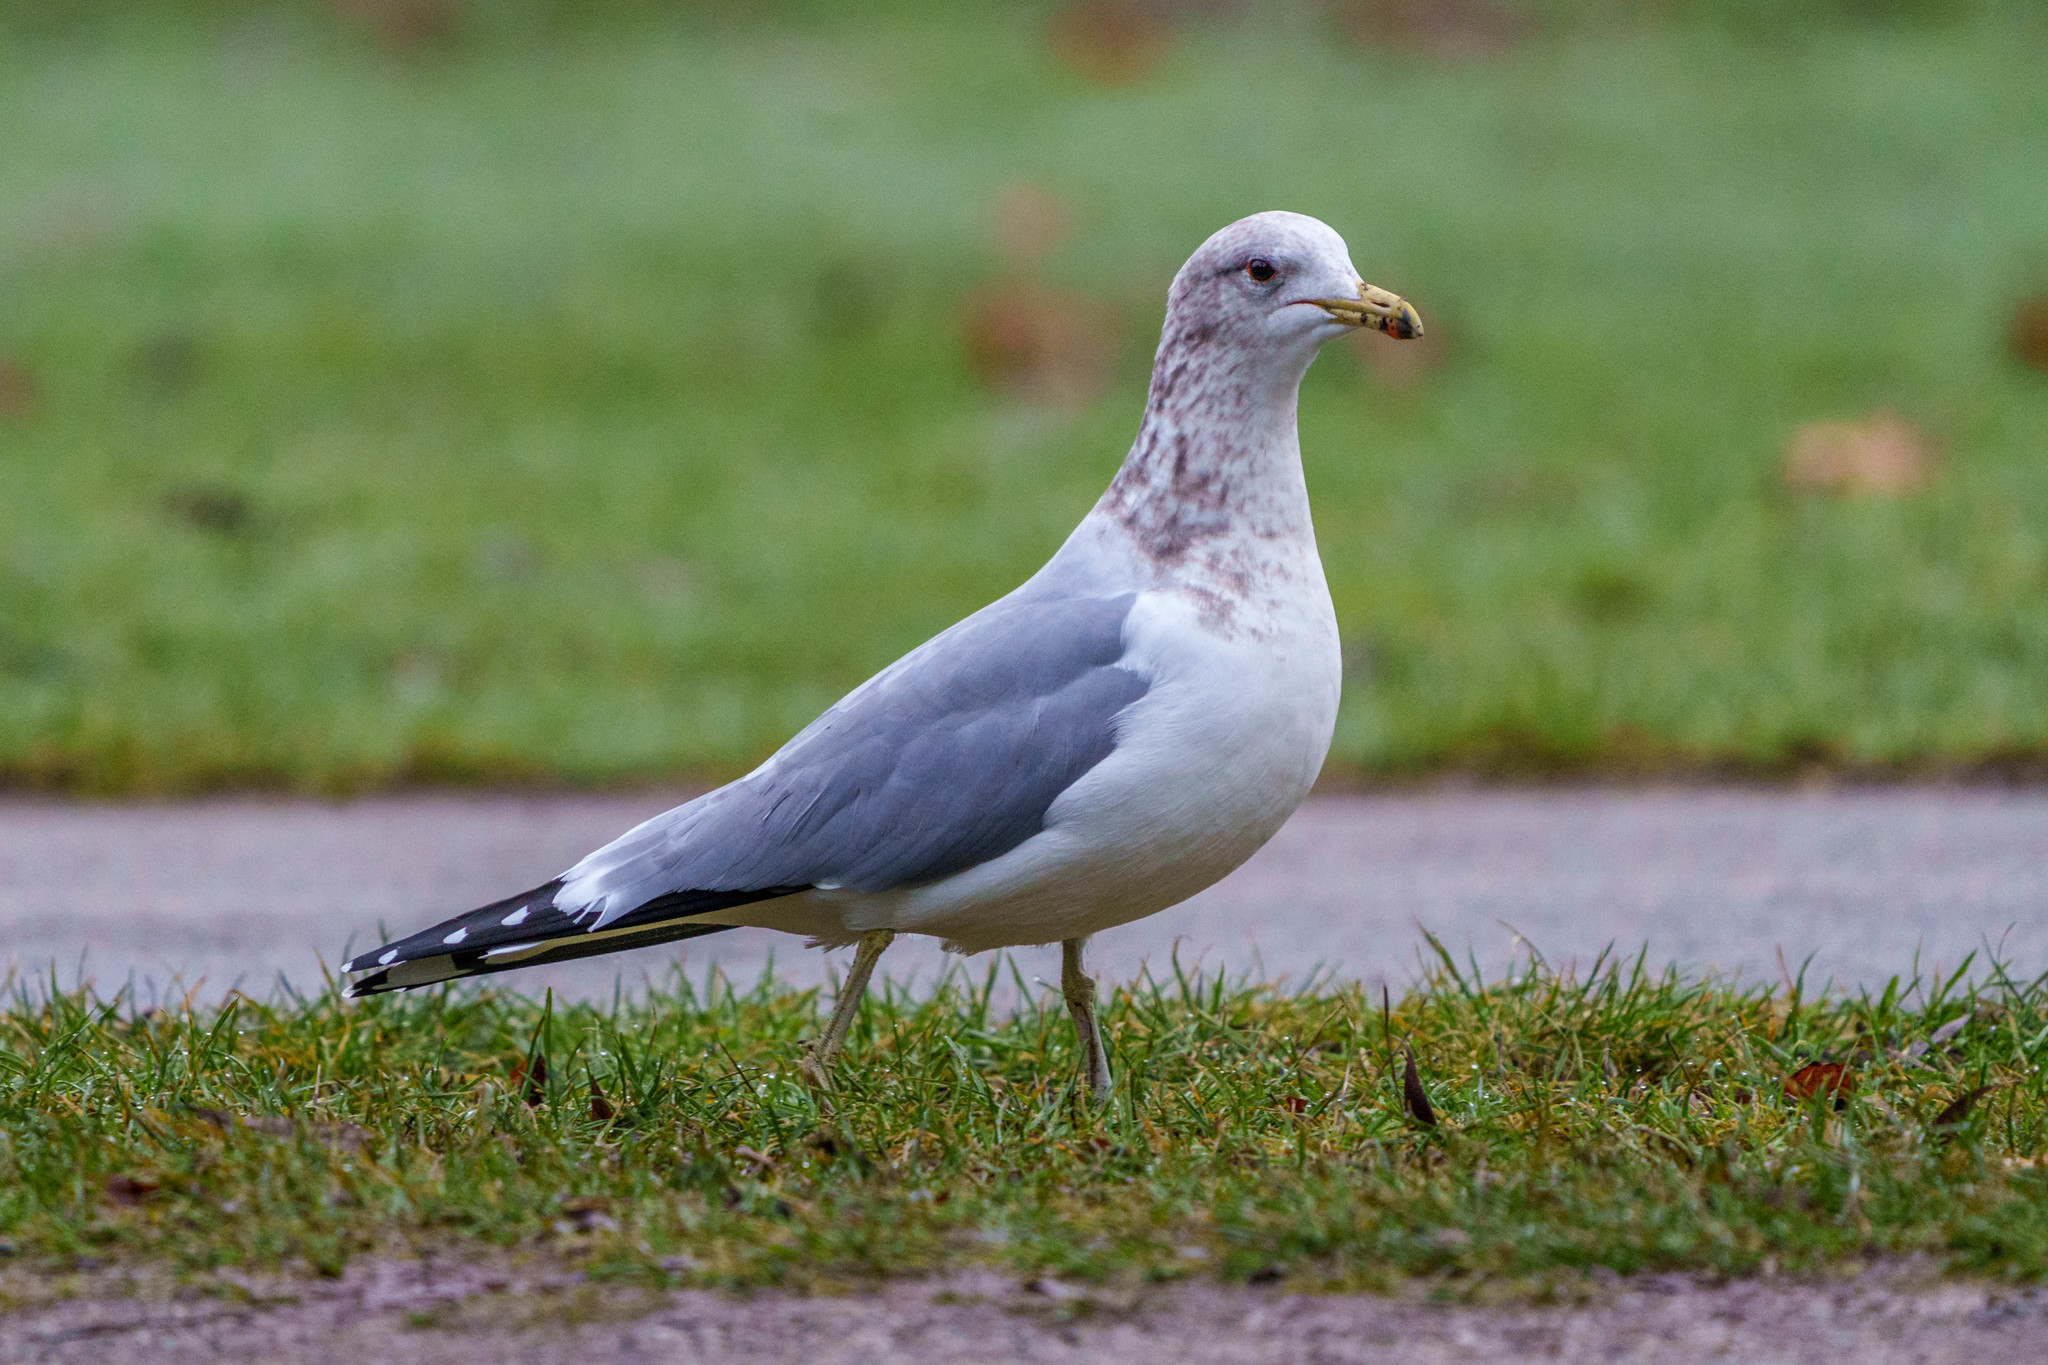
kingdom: Animalia
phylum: Chordata
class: Aves
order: Charadriiformes
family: Laridae
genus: Larus
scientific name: Larus californicus
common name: California gull
